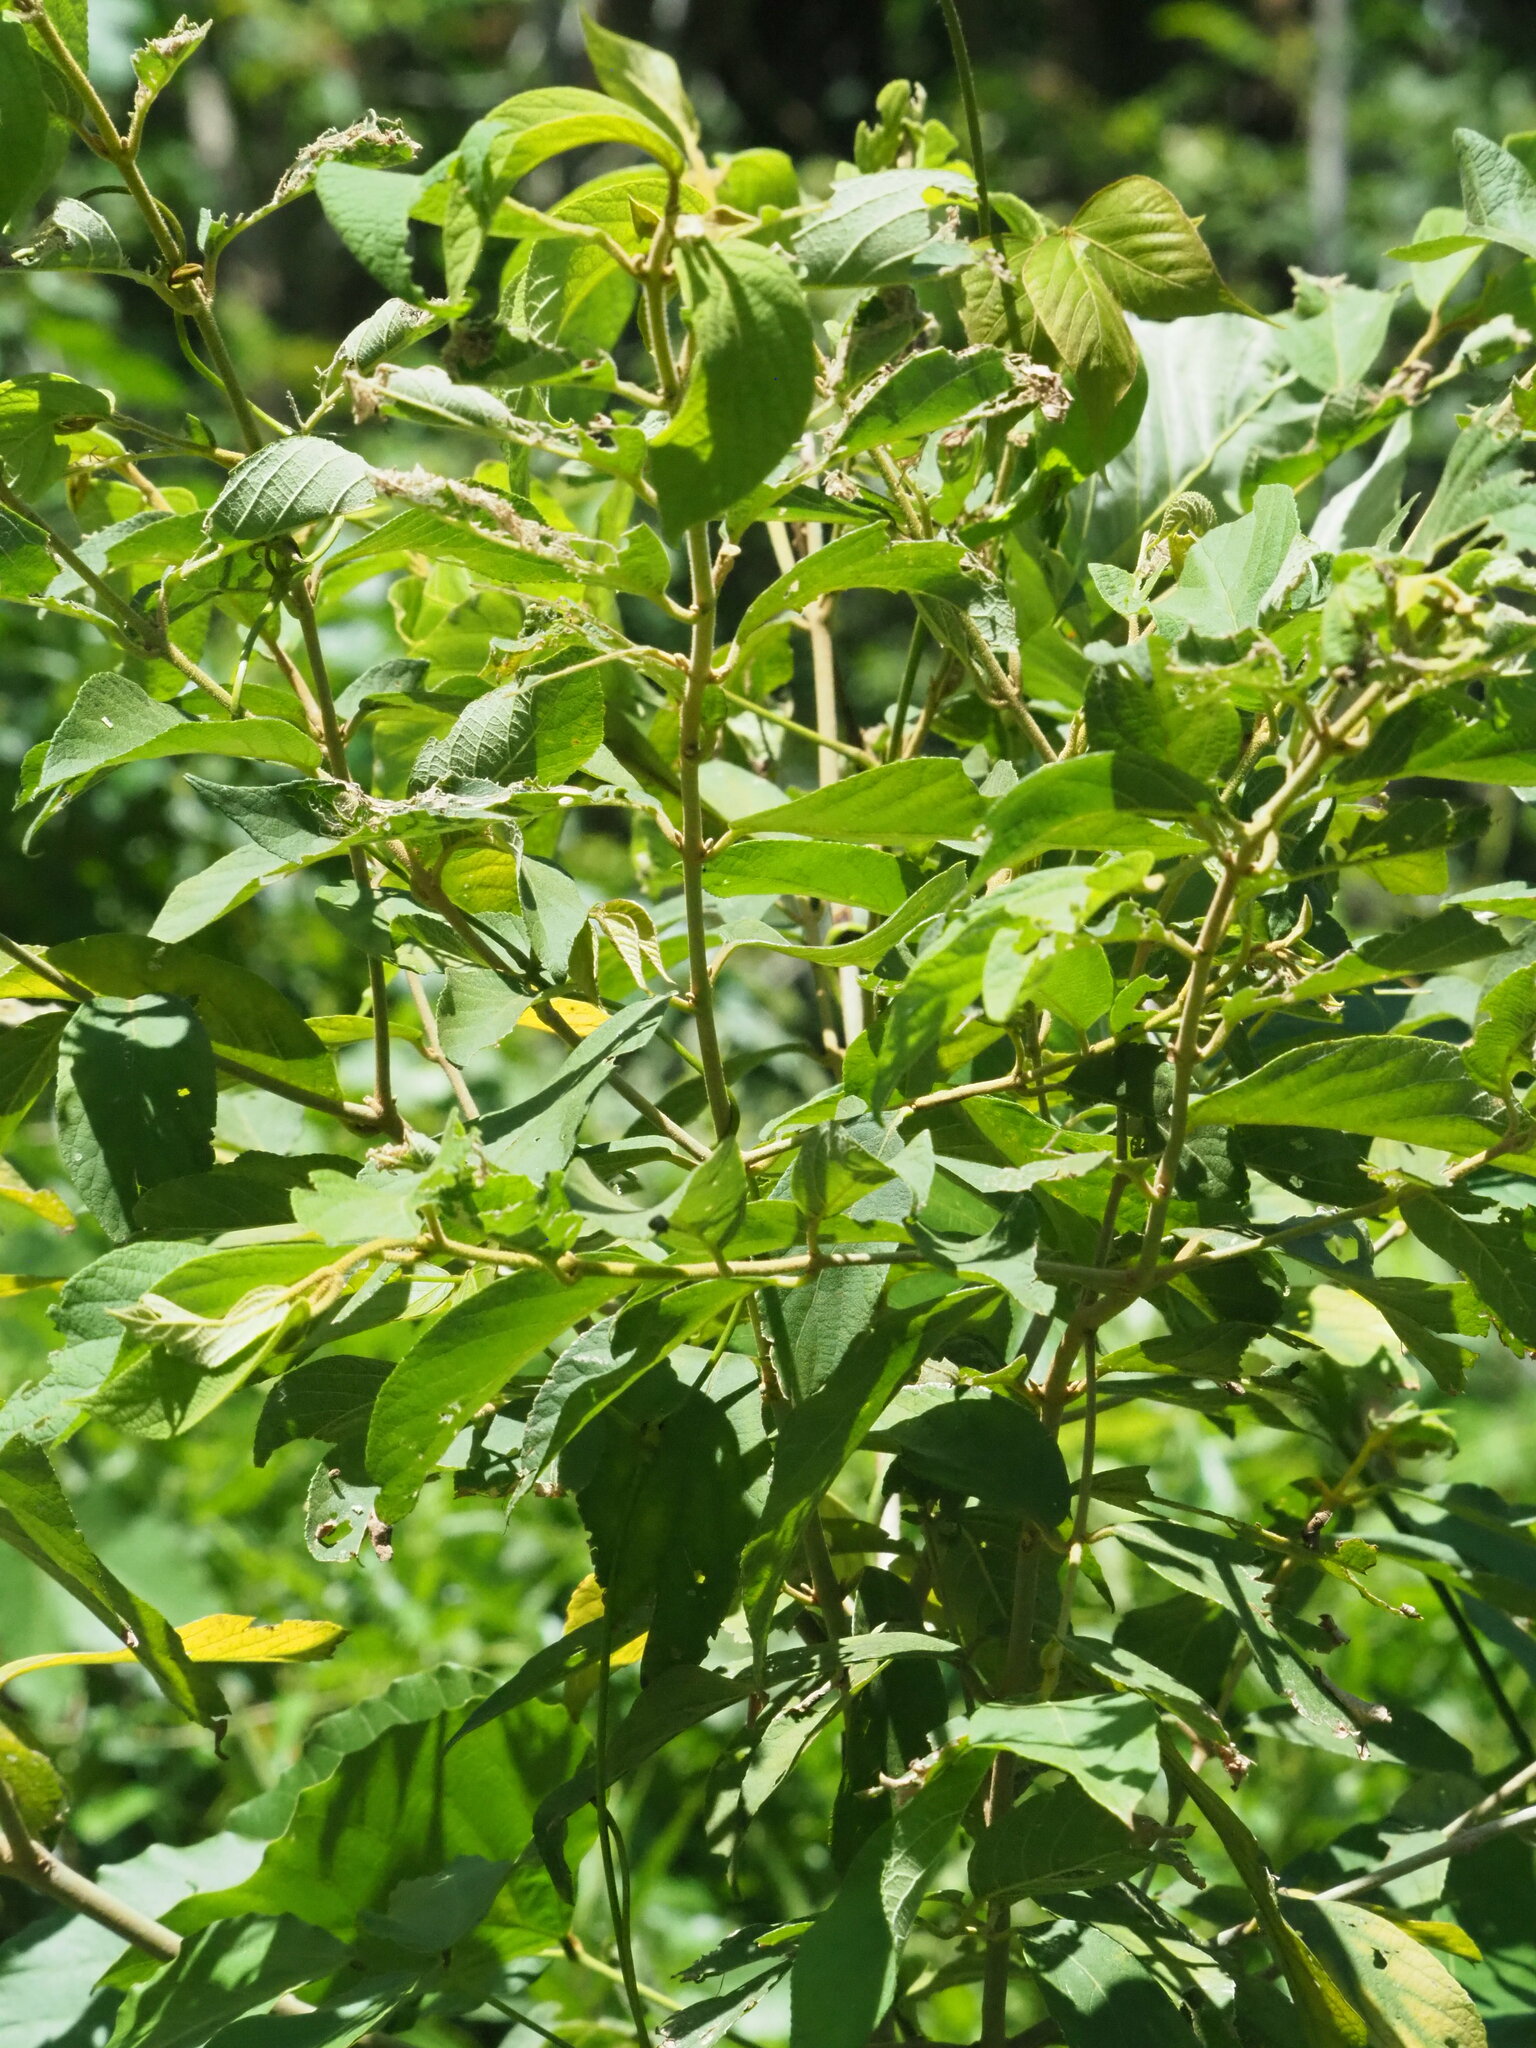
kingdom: Plantae
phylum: Tracheophyta
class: Magnoliopsida
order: Lamiales
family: Lamiaceae
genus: Callicarpa
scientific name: Callicarpa pedunculata
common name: Velvetleaf
